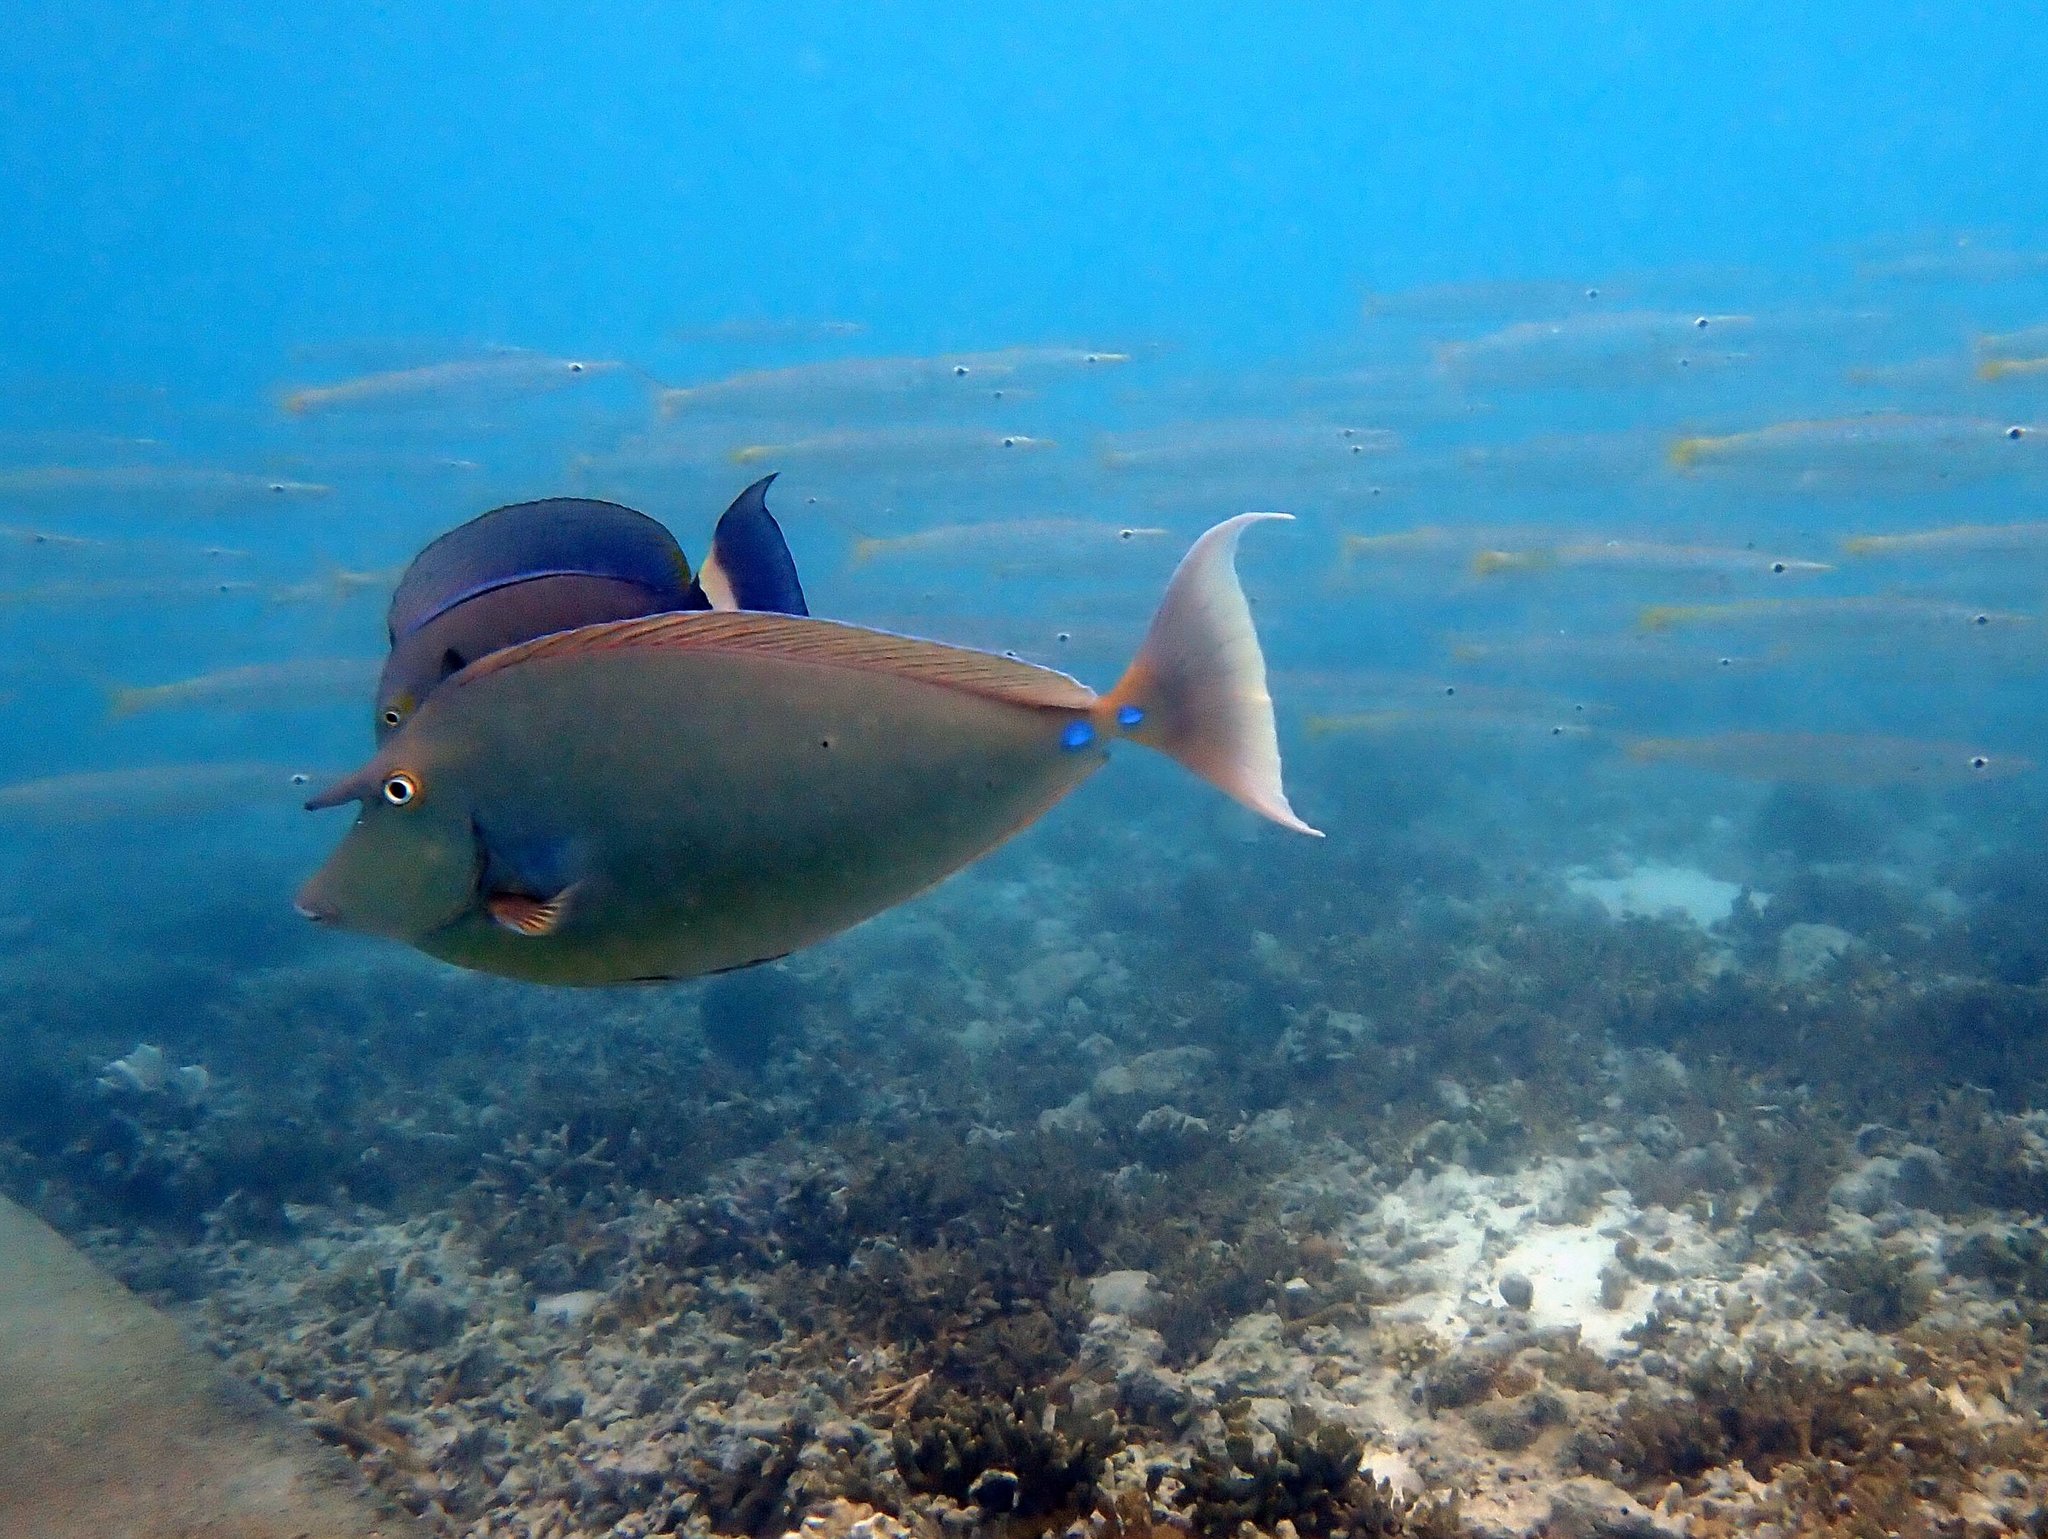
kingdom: Animalia
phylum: Chordata
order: Perciformes
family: Acanthuridae
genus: Naso
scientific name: Naso unicornis
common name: Bluespine unicornfish
